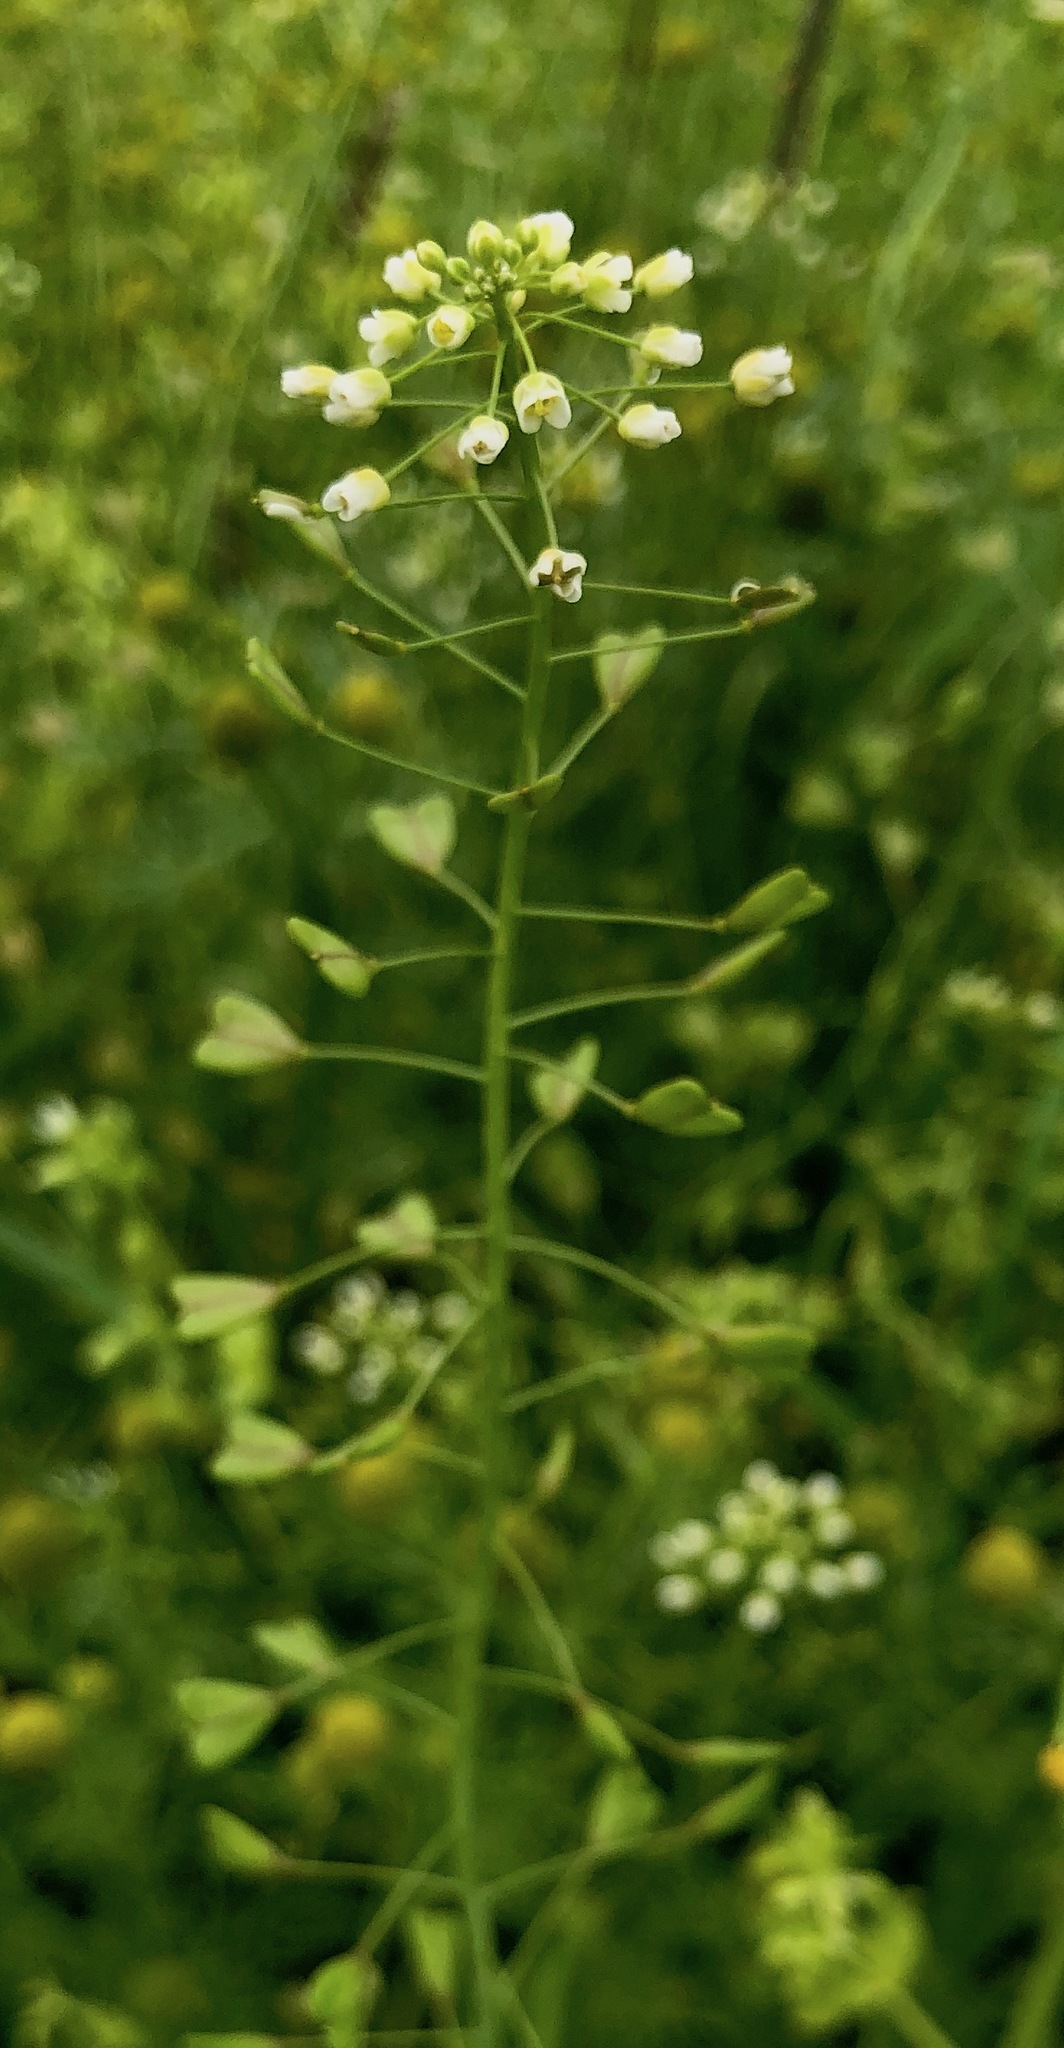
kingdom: Plantae
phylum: Tracheophyta
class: Magnoliopsida
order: Brassicales
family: Brassicaceae
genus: Capsella
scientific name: Capsella bursa-pastoris
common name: Shepherd's purse
